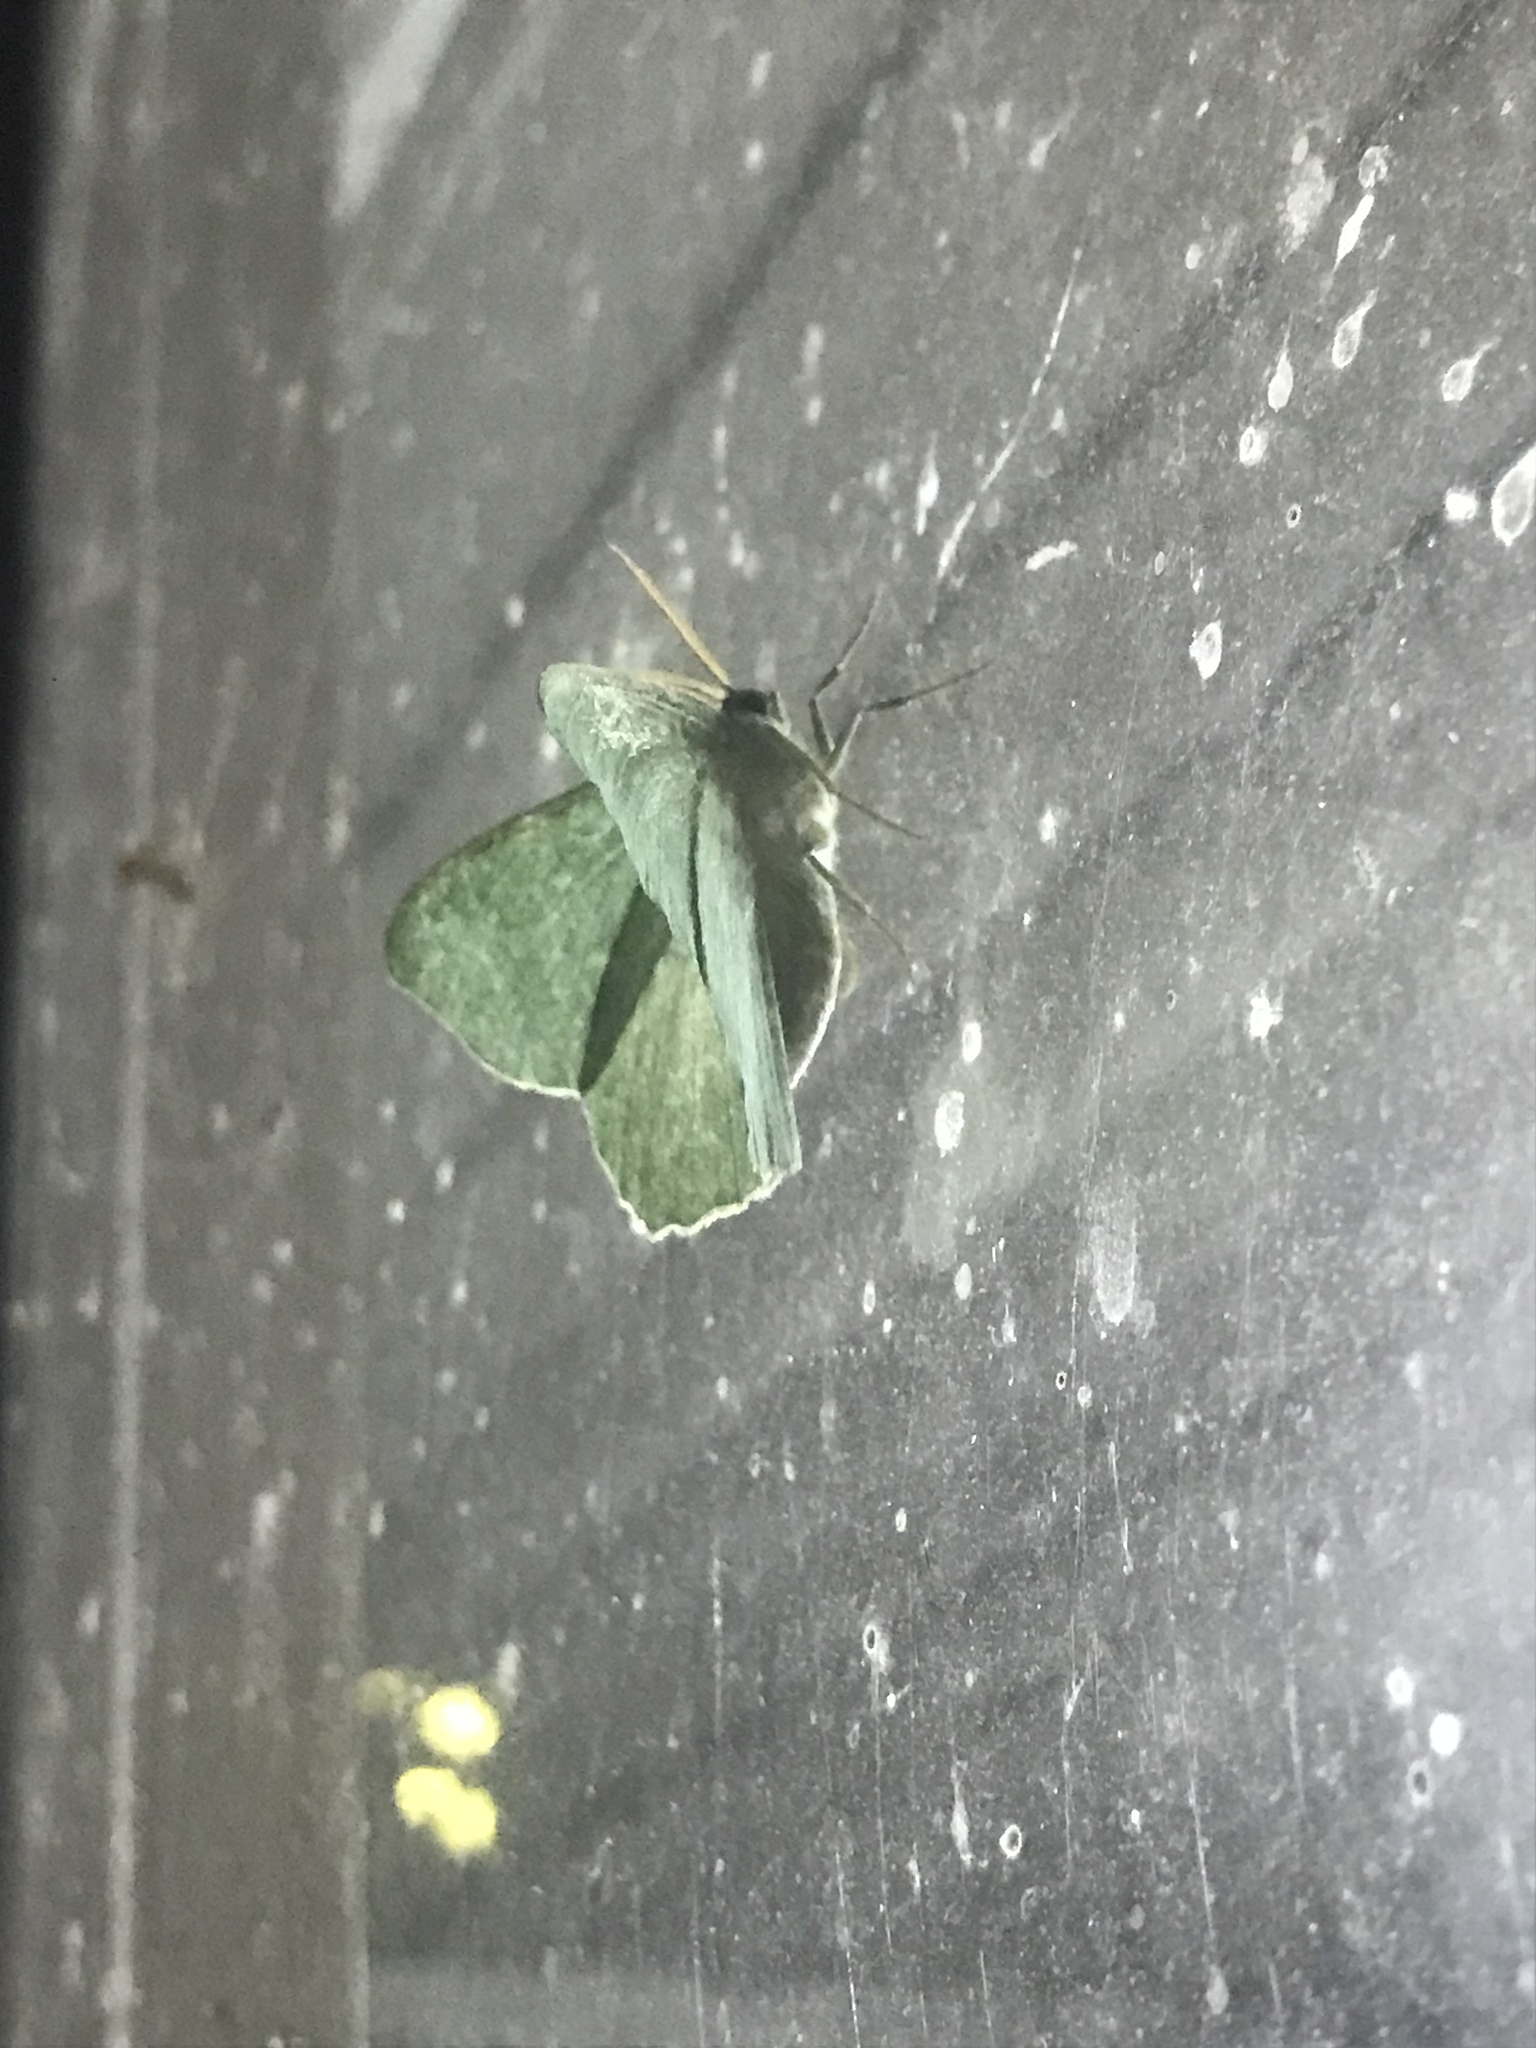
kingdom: Animalia
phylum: Arthropoda
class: Insecta
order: Lepidoptera
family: Geometridae
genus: Geometra
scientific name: Geometra papilionaria
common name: Large emerald
